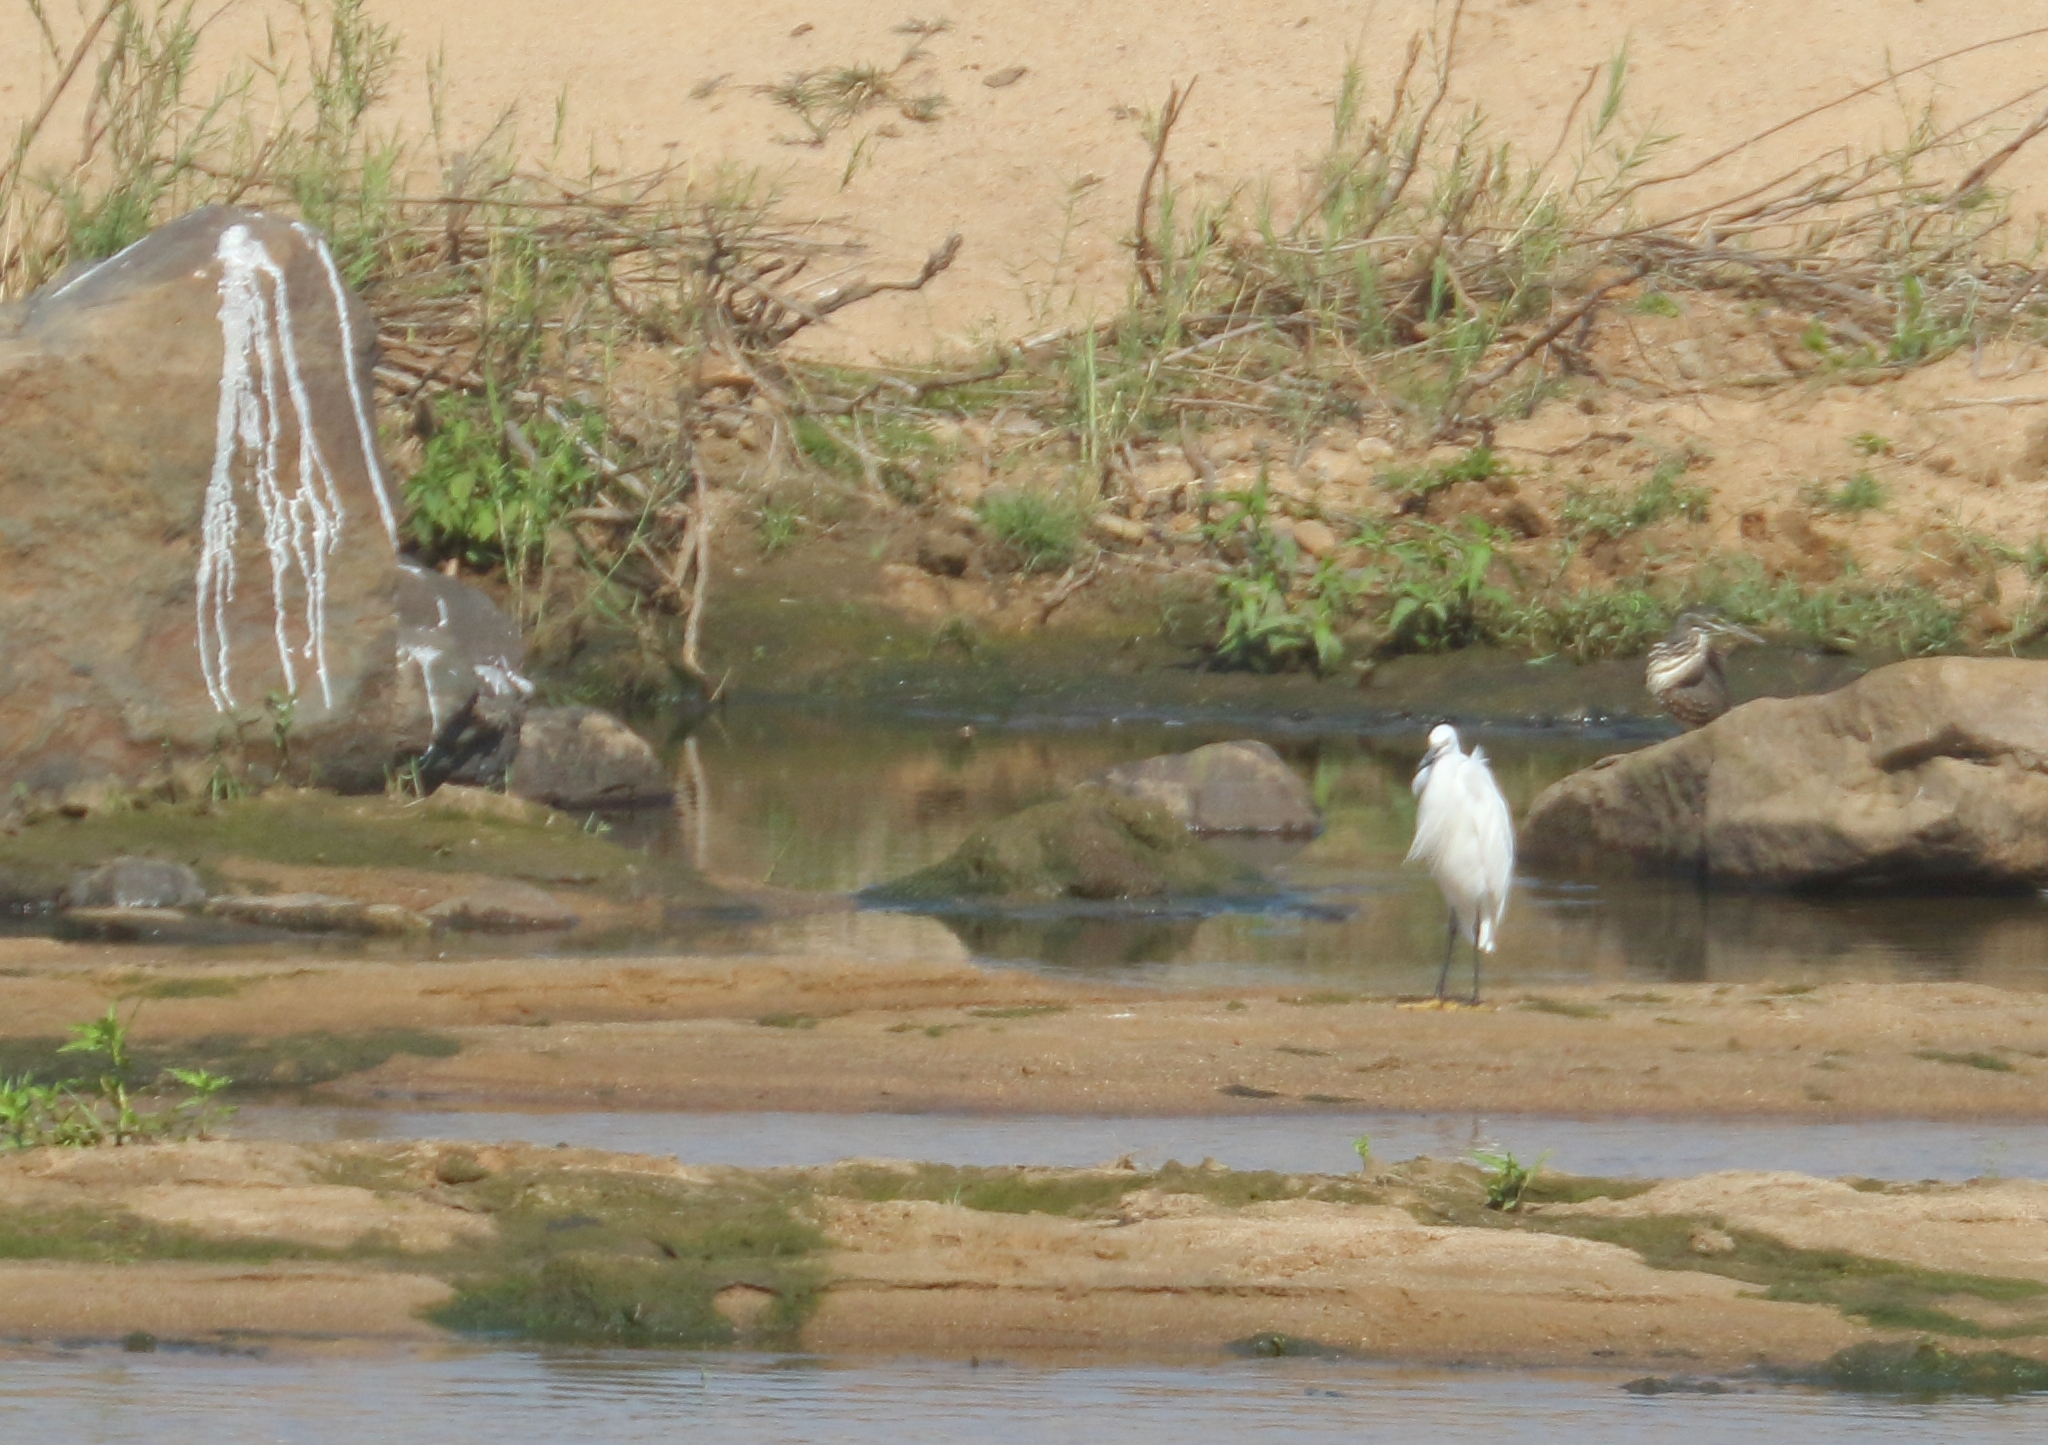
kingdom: Animalia
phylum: Chordata
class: Aves
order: Pelecaniformes
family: Ardeidae
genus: Egretta
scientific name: Egretta garzetta
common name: Little egret
